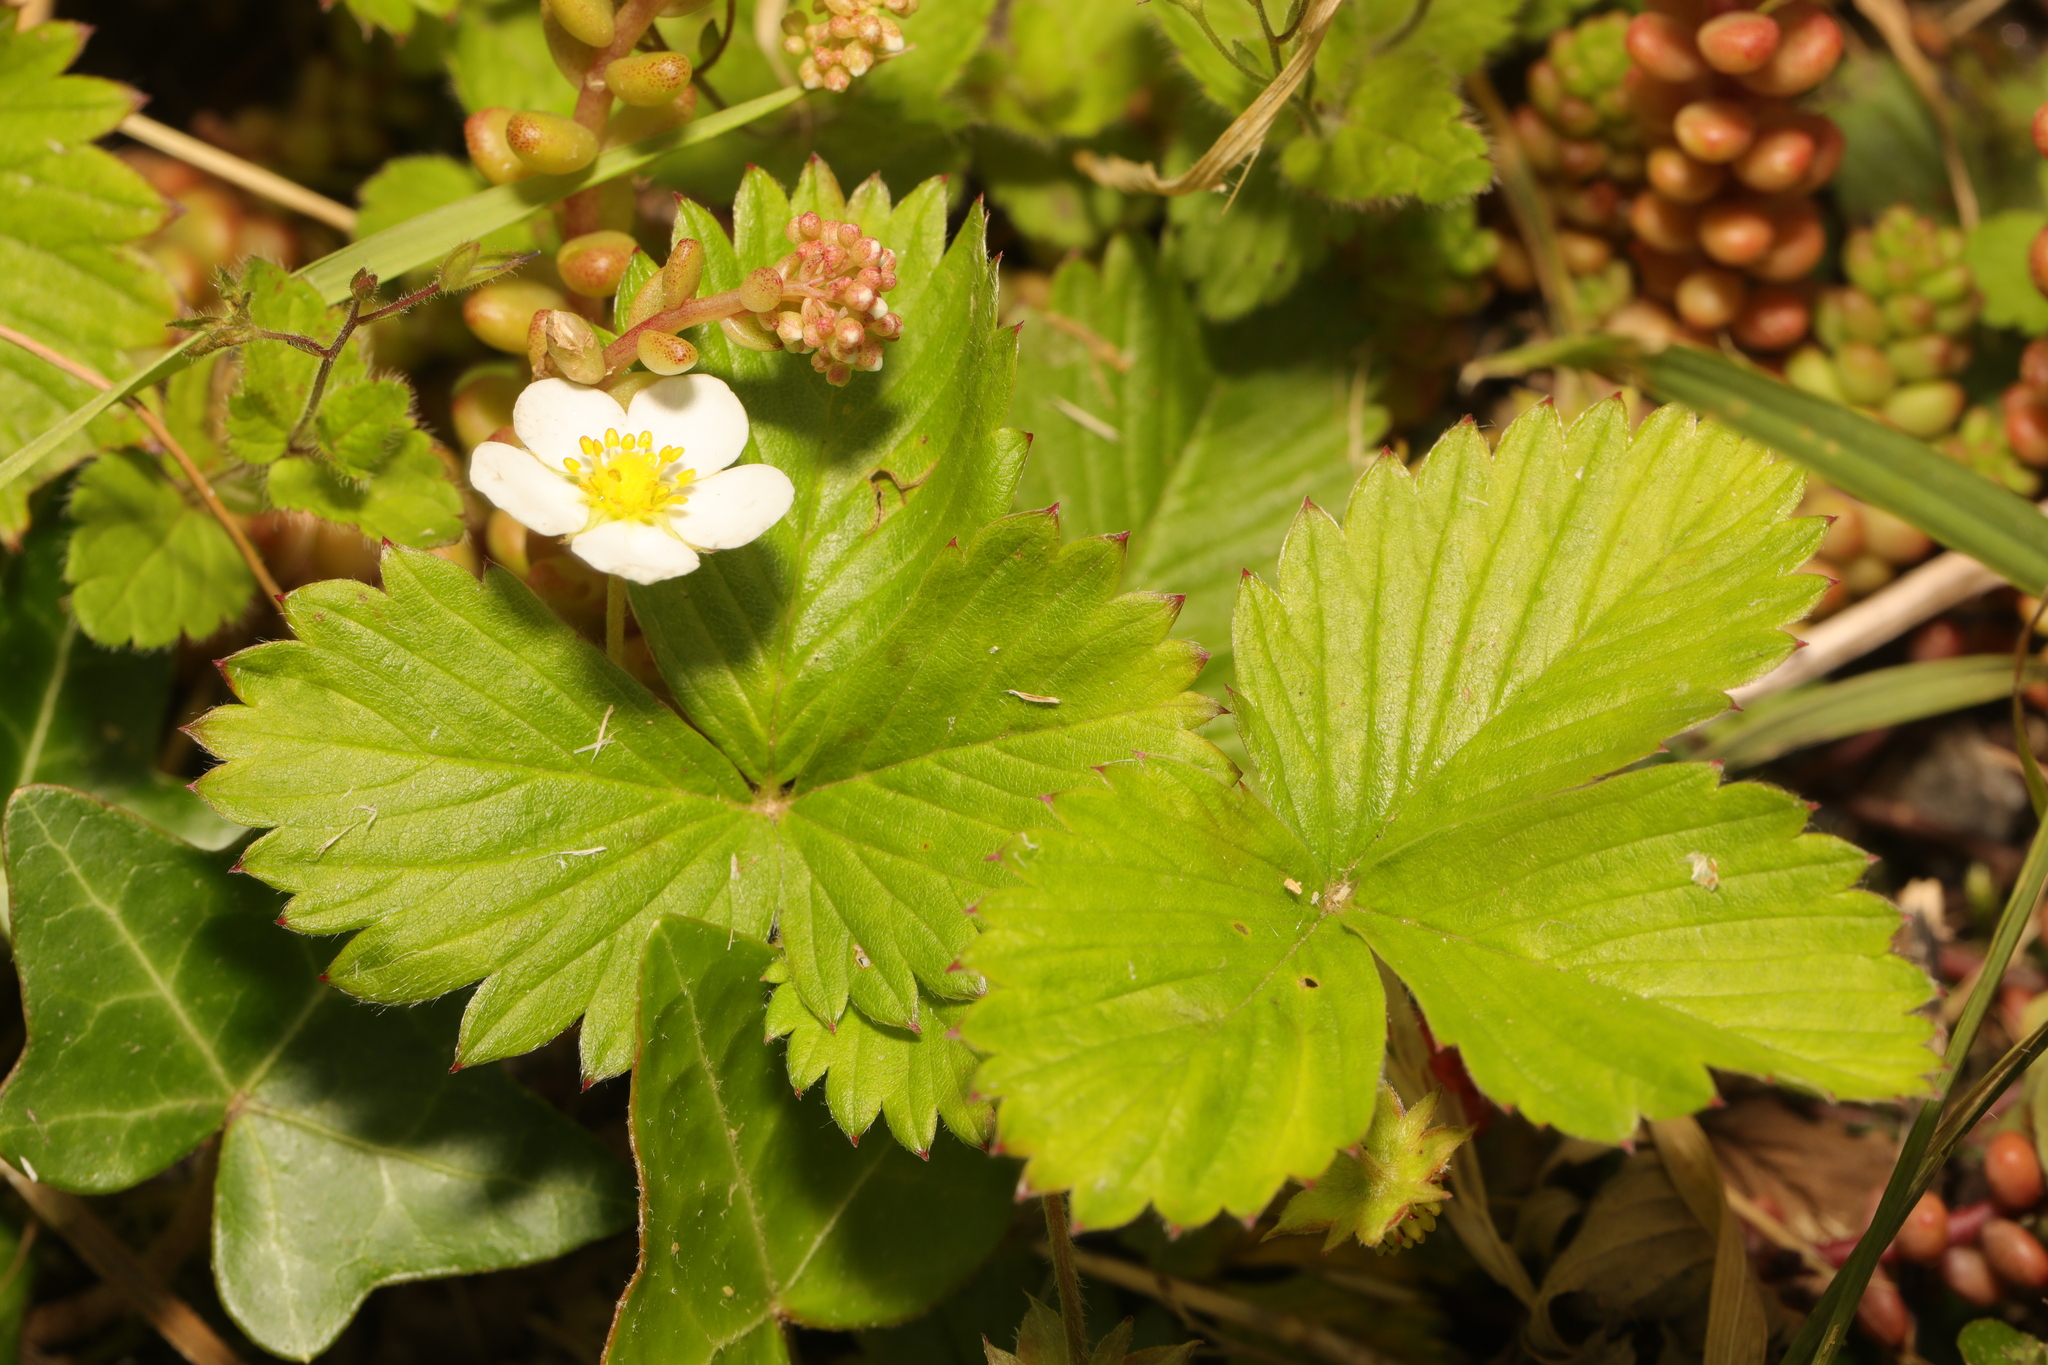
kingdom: Plantae
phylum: Tracheophyta
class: Magnoliopsida
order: Rosales
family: Rosaceae
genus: Fragaria
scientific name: Fragaria vesca
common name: Wild strawberry
